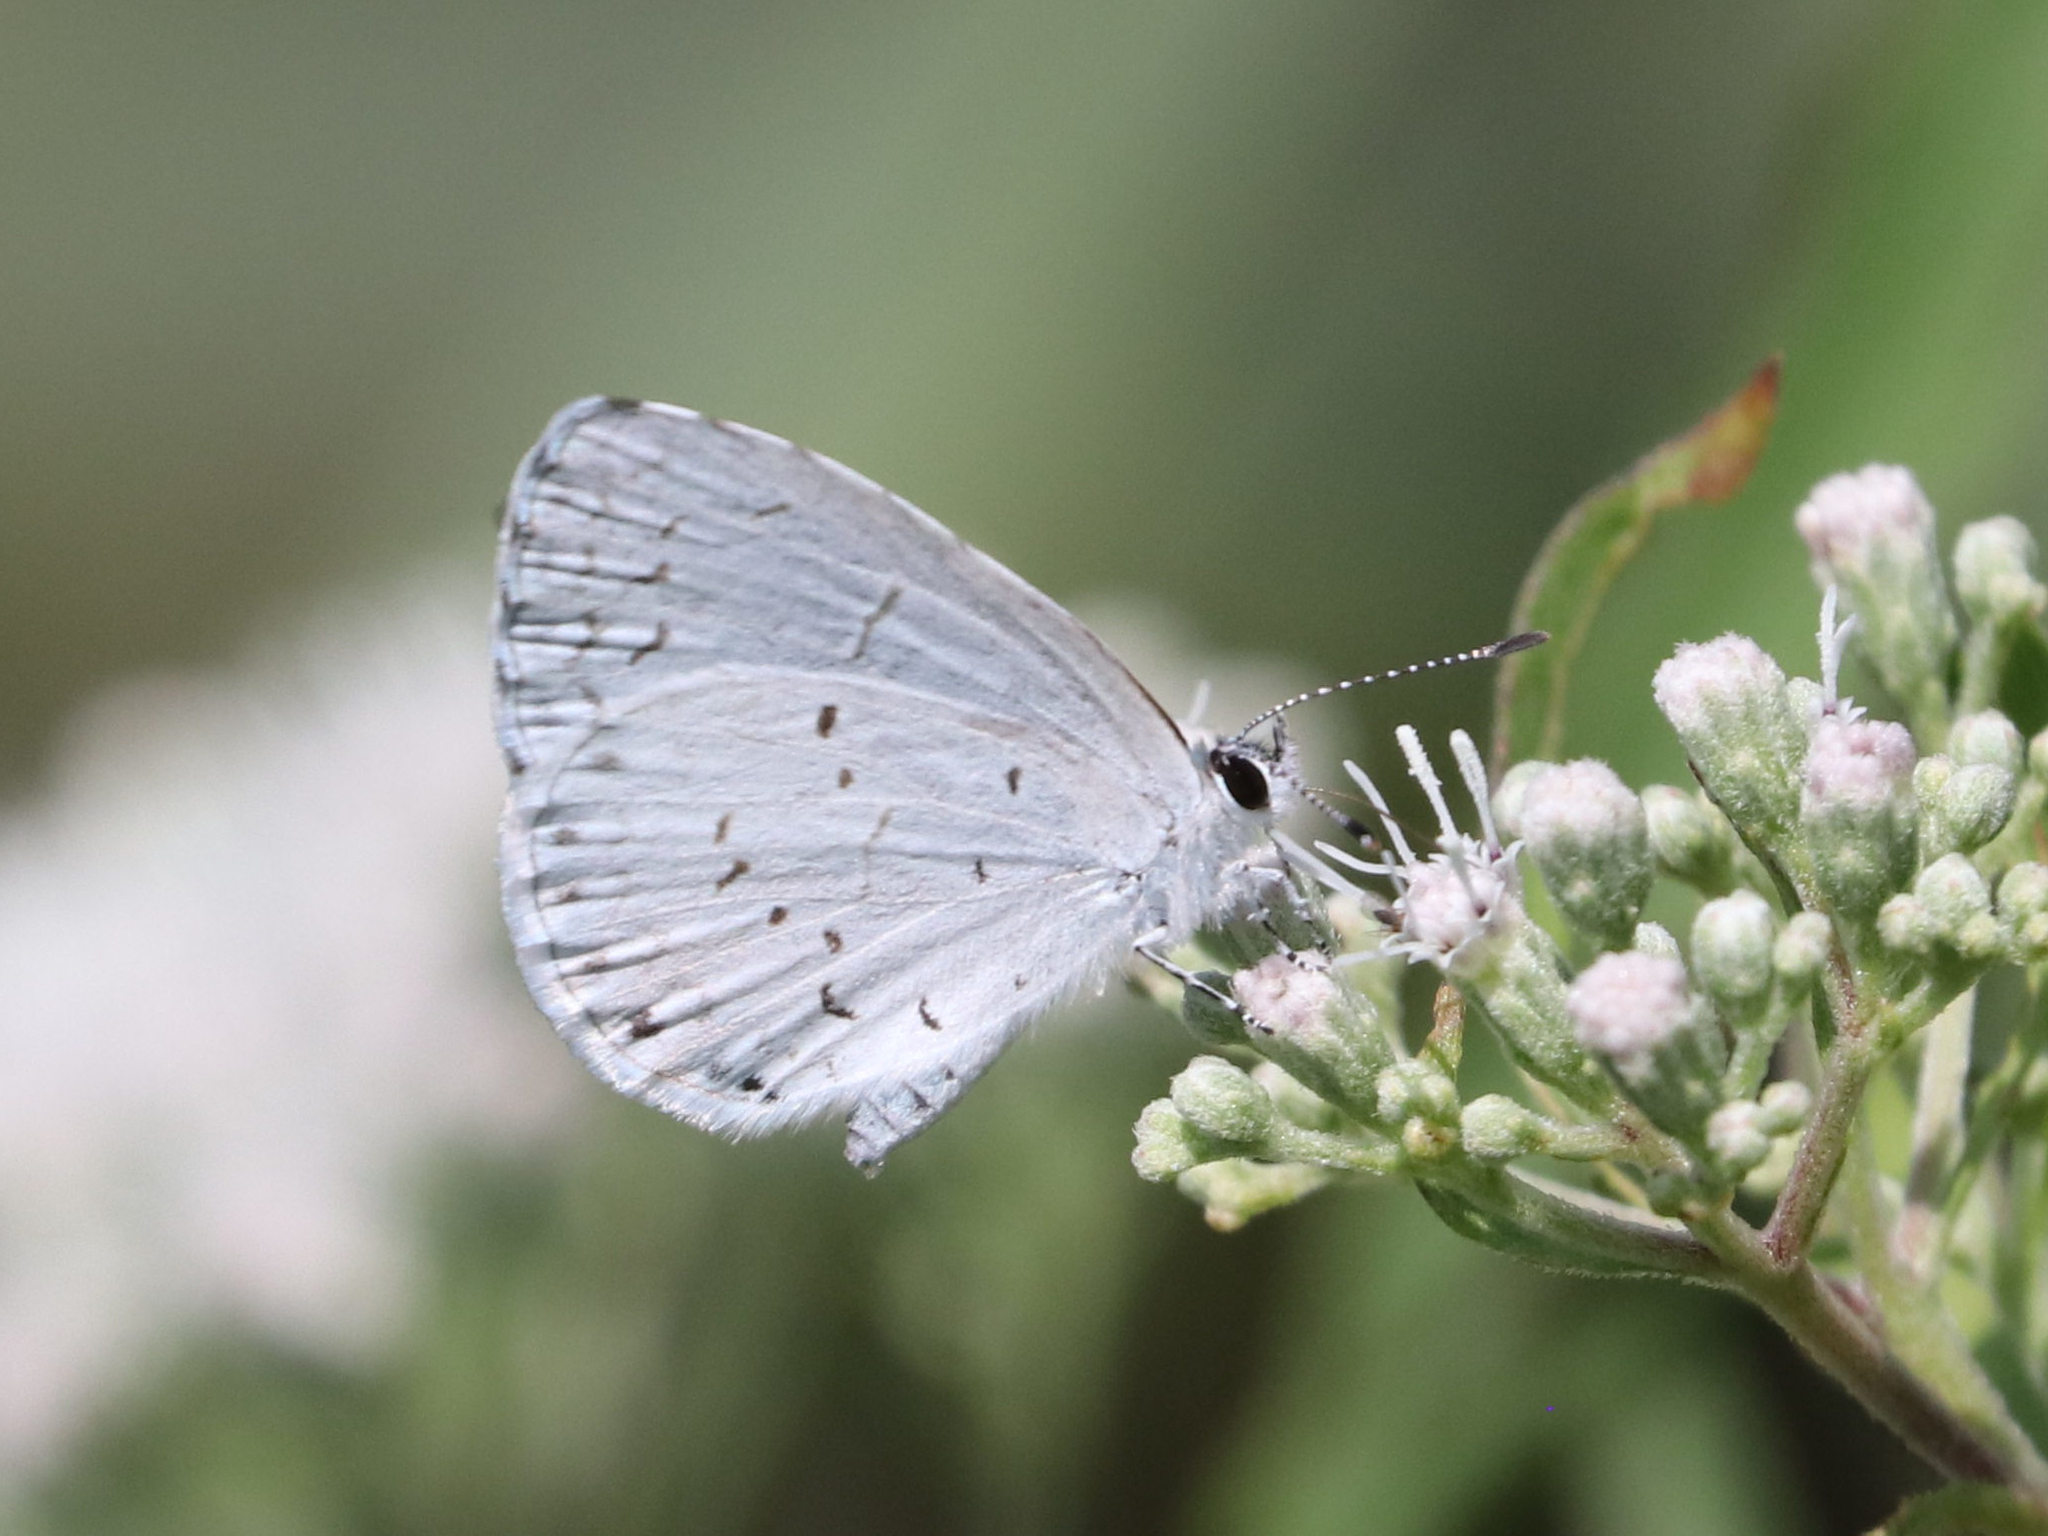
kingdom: Animalia
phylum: Arthropoda
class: Insecta
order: Lepidoptera
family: Lycaenidae
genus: Cyaniris
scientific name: Cyaniris neglecta
